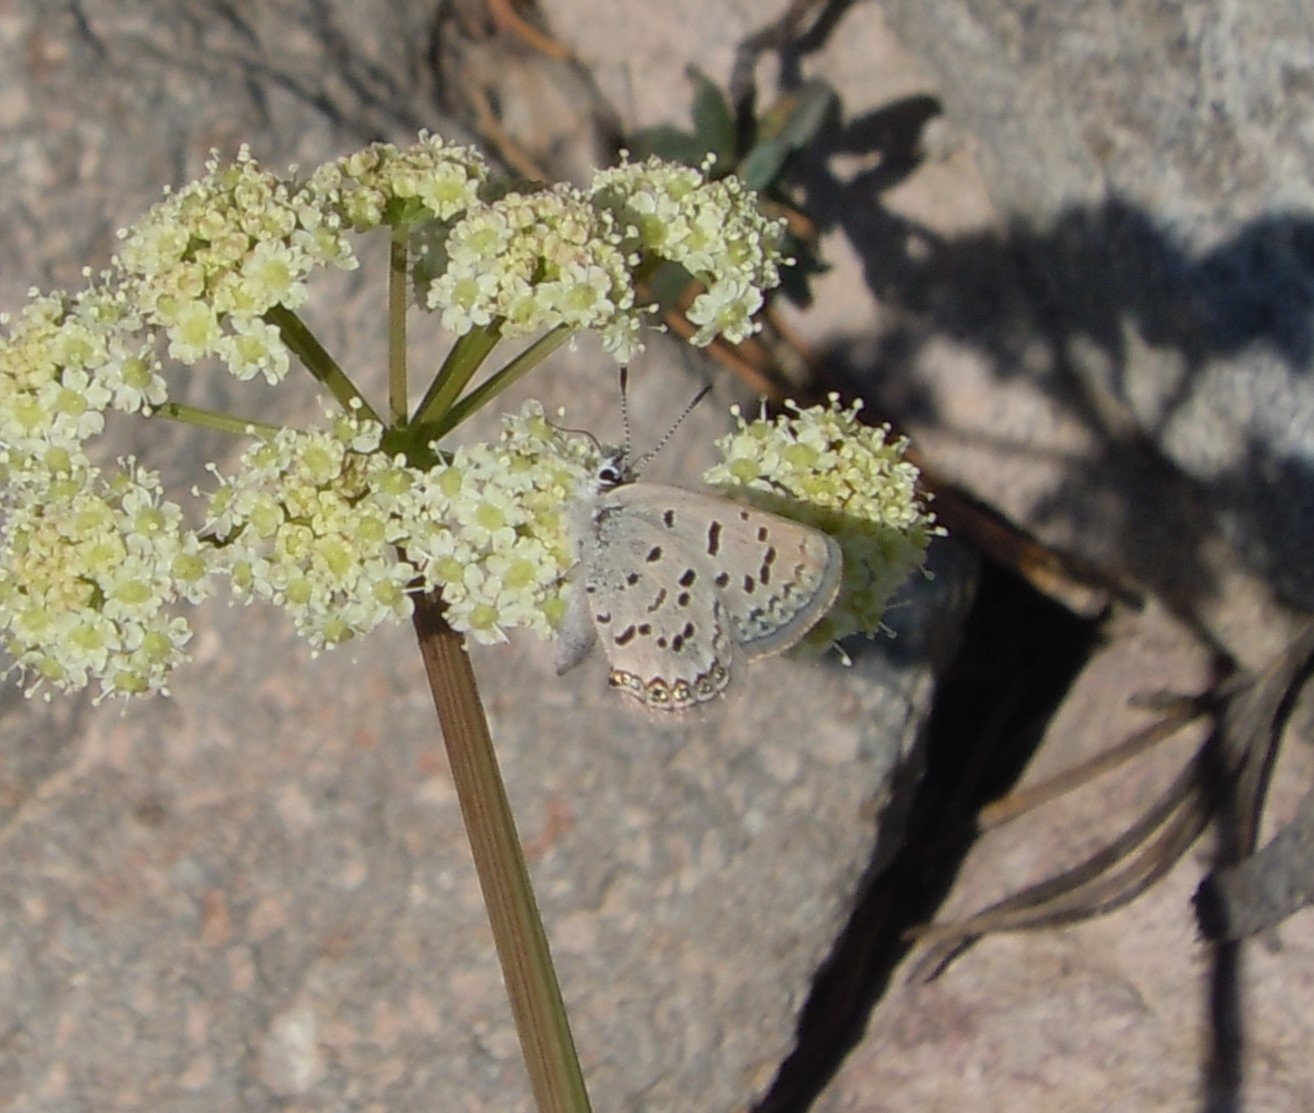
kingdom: Animalia
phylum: Arthropoda
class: Insecta
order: Lepidoptera
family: Lycaenidae
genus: Icaricia
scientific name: Icaricia shasta
